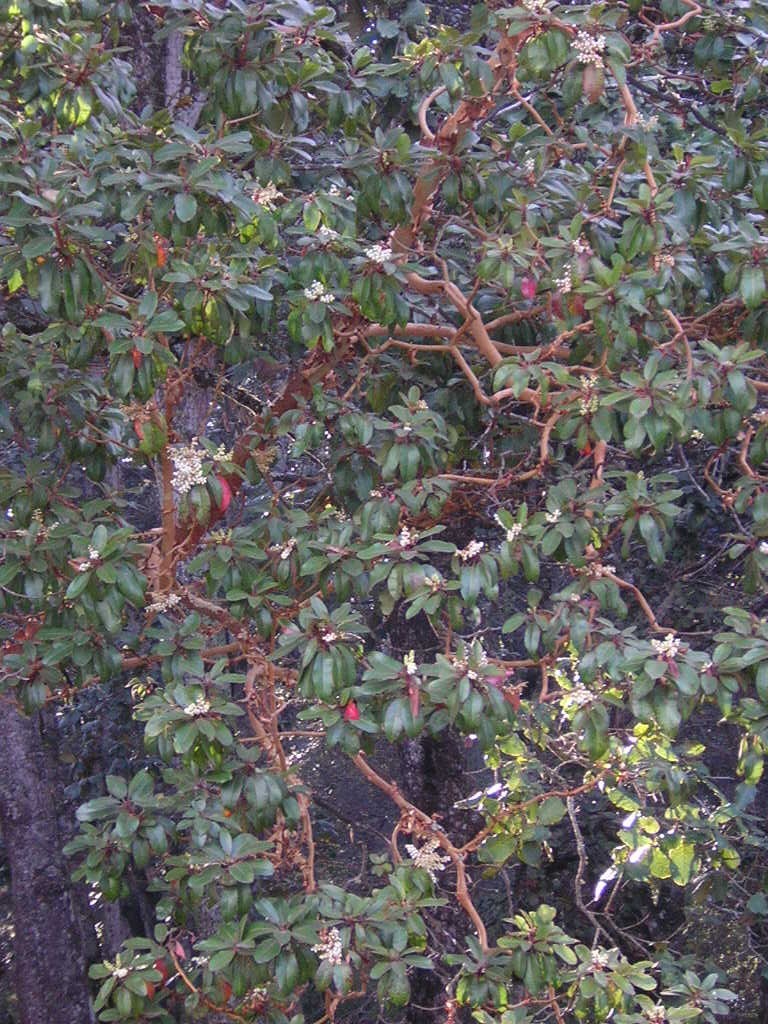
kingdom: Plantae
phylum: Tracheophyta
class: Magnoliopsida
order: Ericales
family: Ericaceae
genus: Arbutus
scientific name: Arbutus xalapensis
